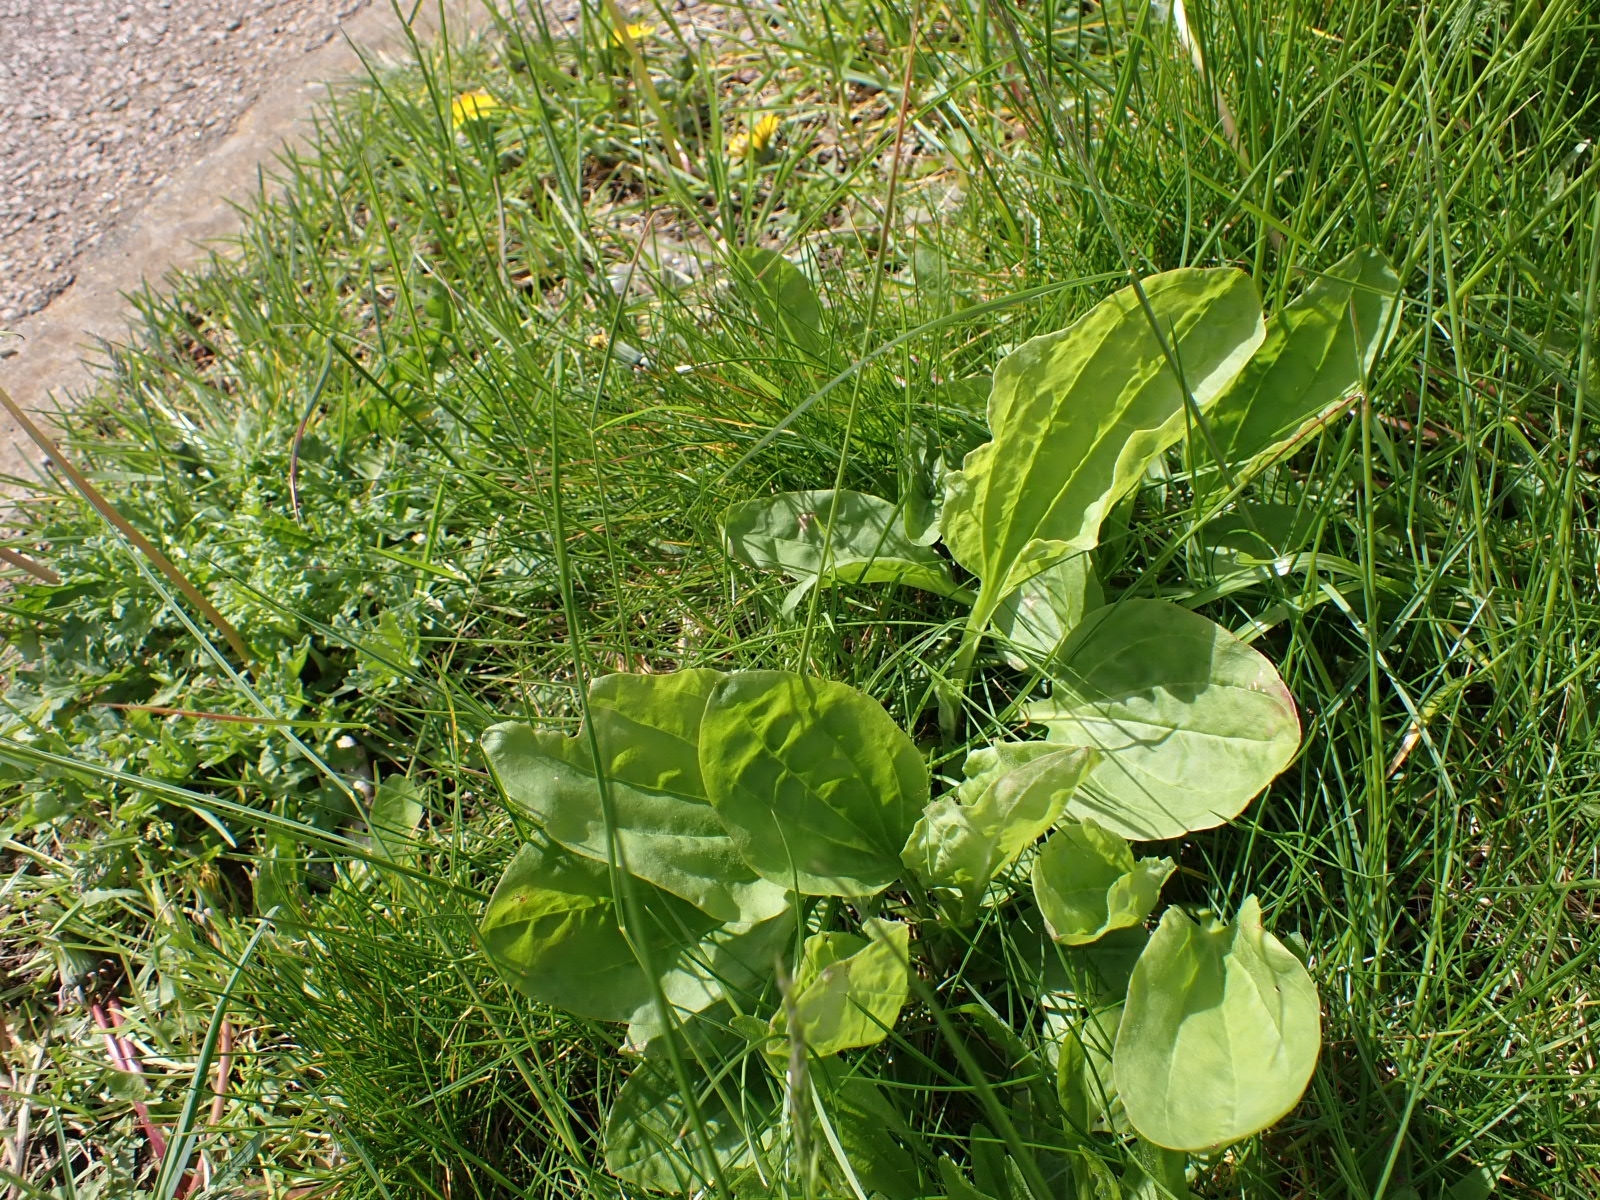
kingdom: Plantae
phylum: Tracheophyta
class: Magnoliopsida
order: Lamiales
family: Plantaginaceae
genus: Plantago
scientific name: Plantago major
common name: Common plantain
